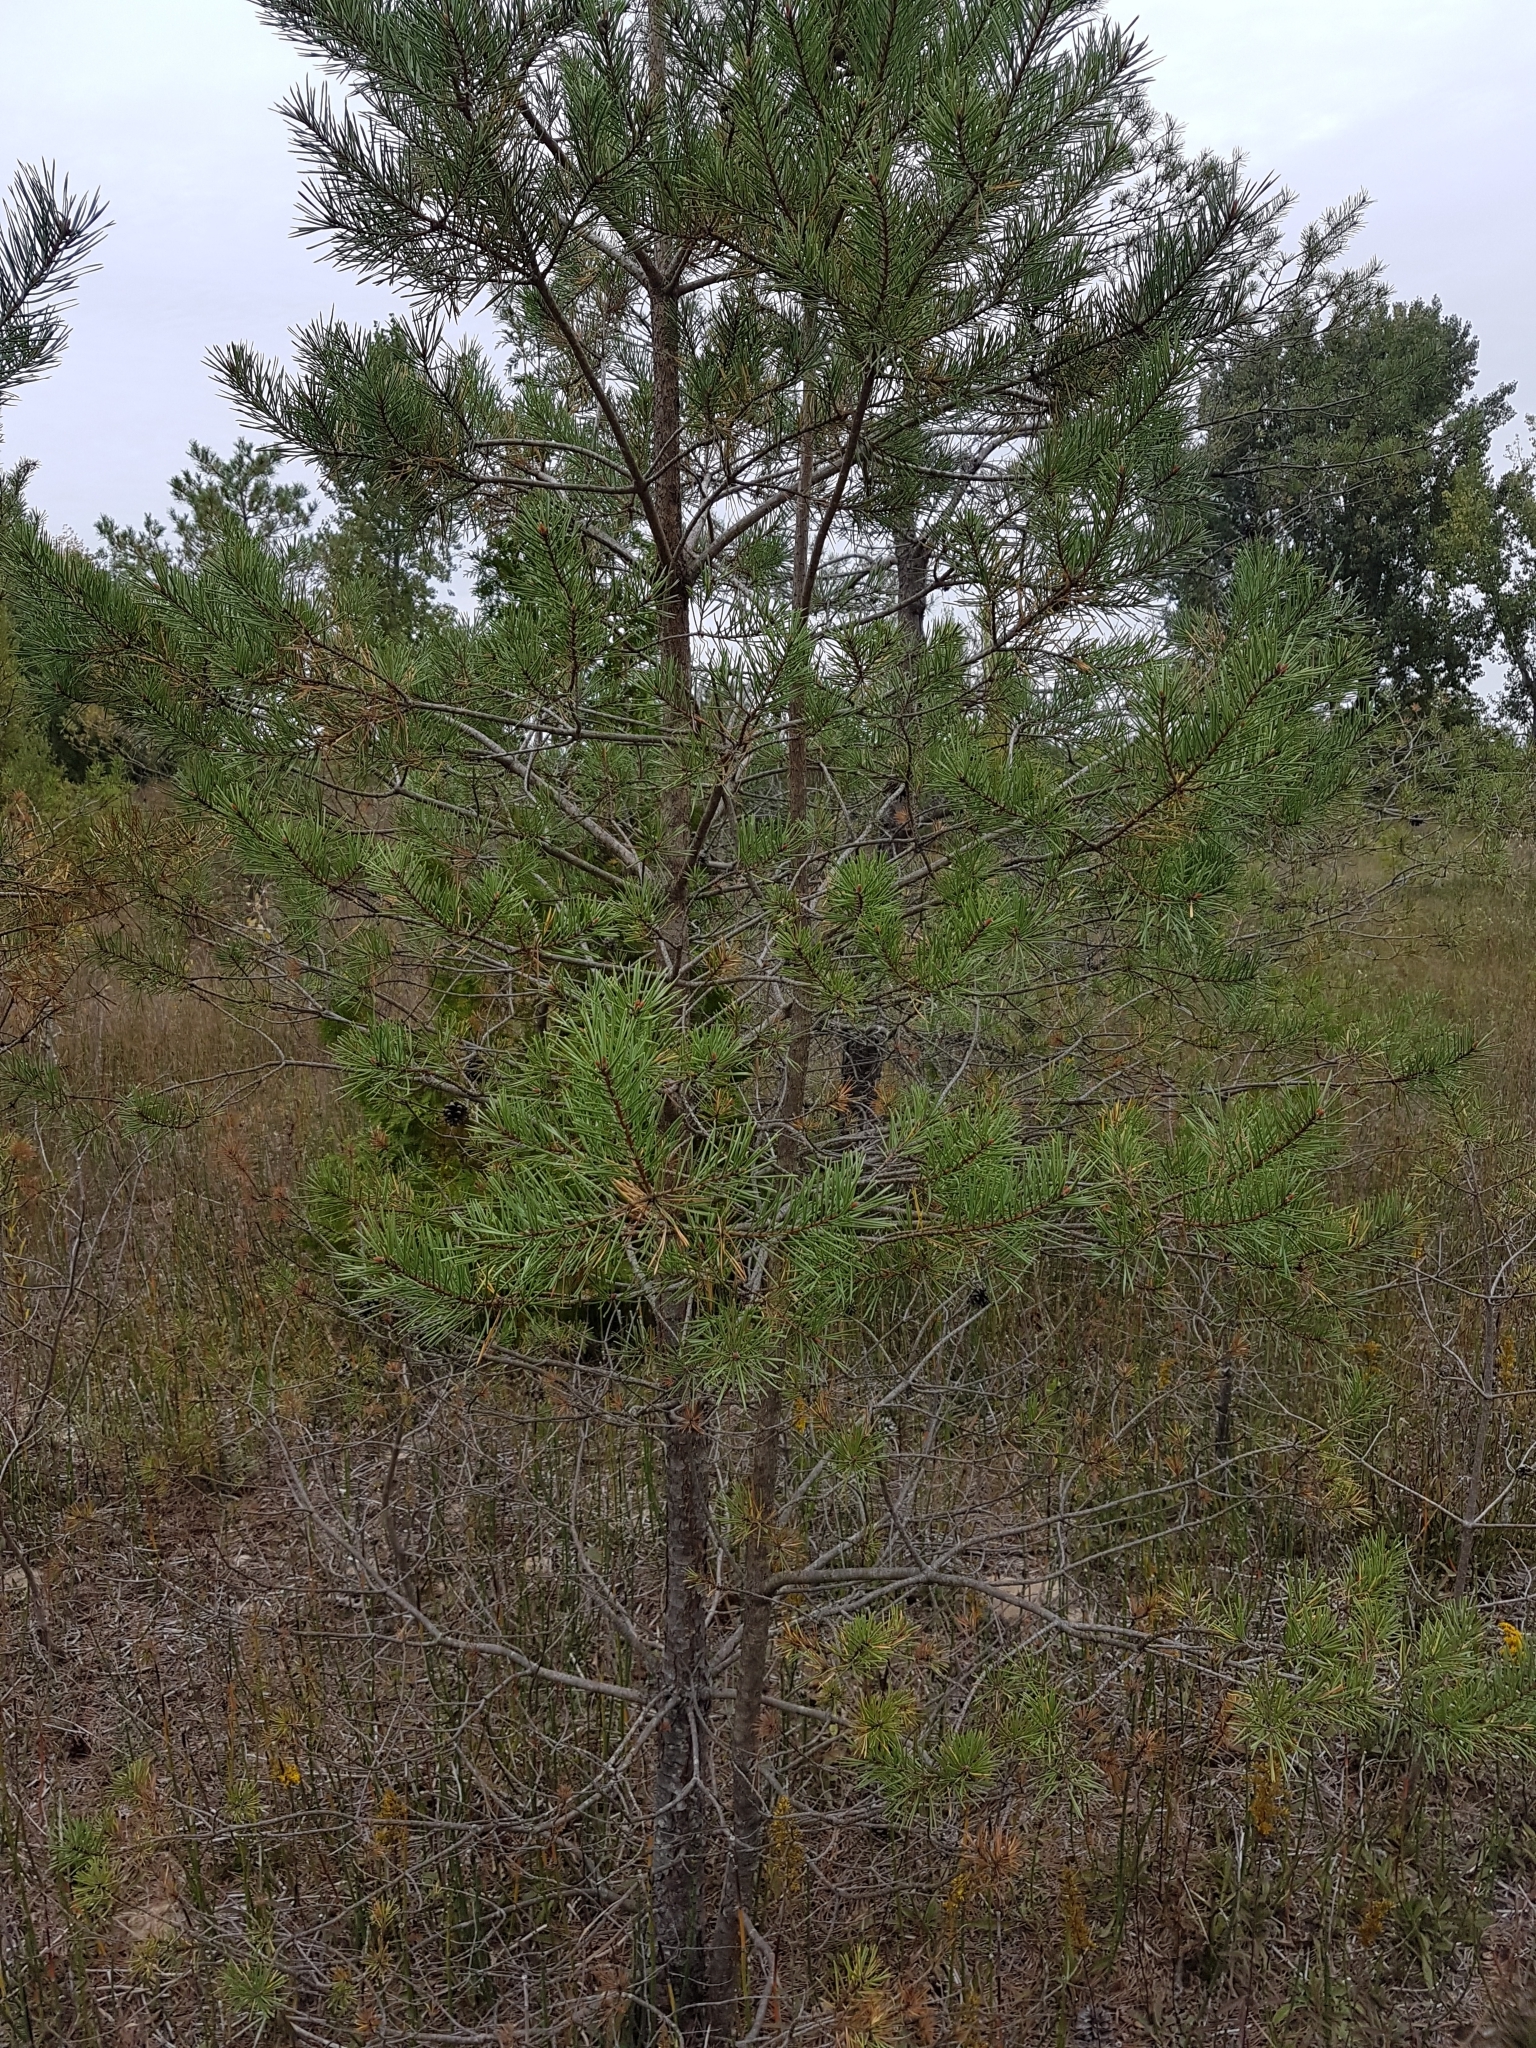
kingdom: Plantae
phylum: Tracheophyta
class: Pinopsida
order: Pinales
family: Pinaceae
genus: Pinus
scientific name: Pinus sylvestris
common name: Scots pine
